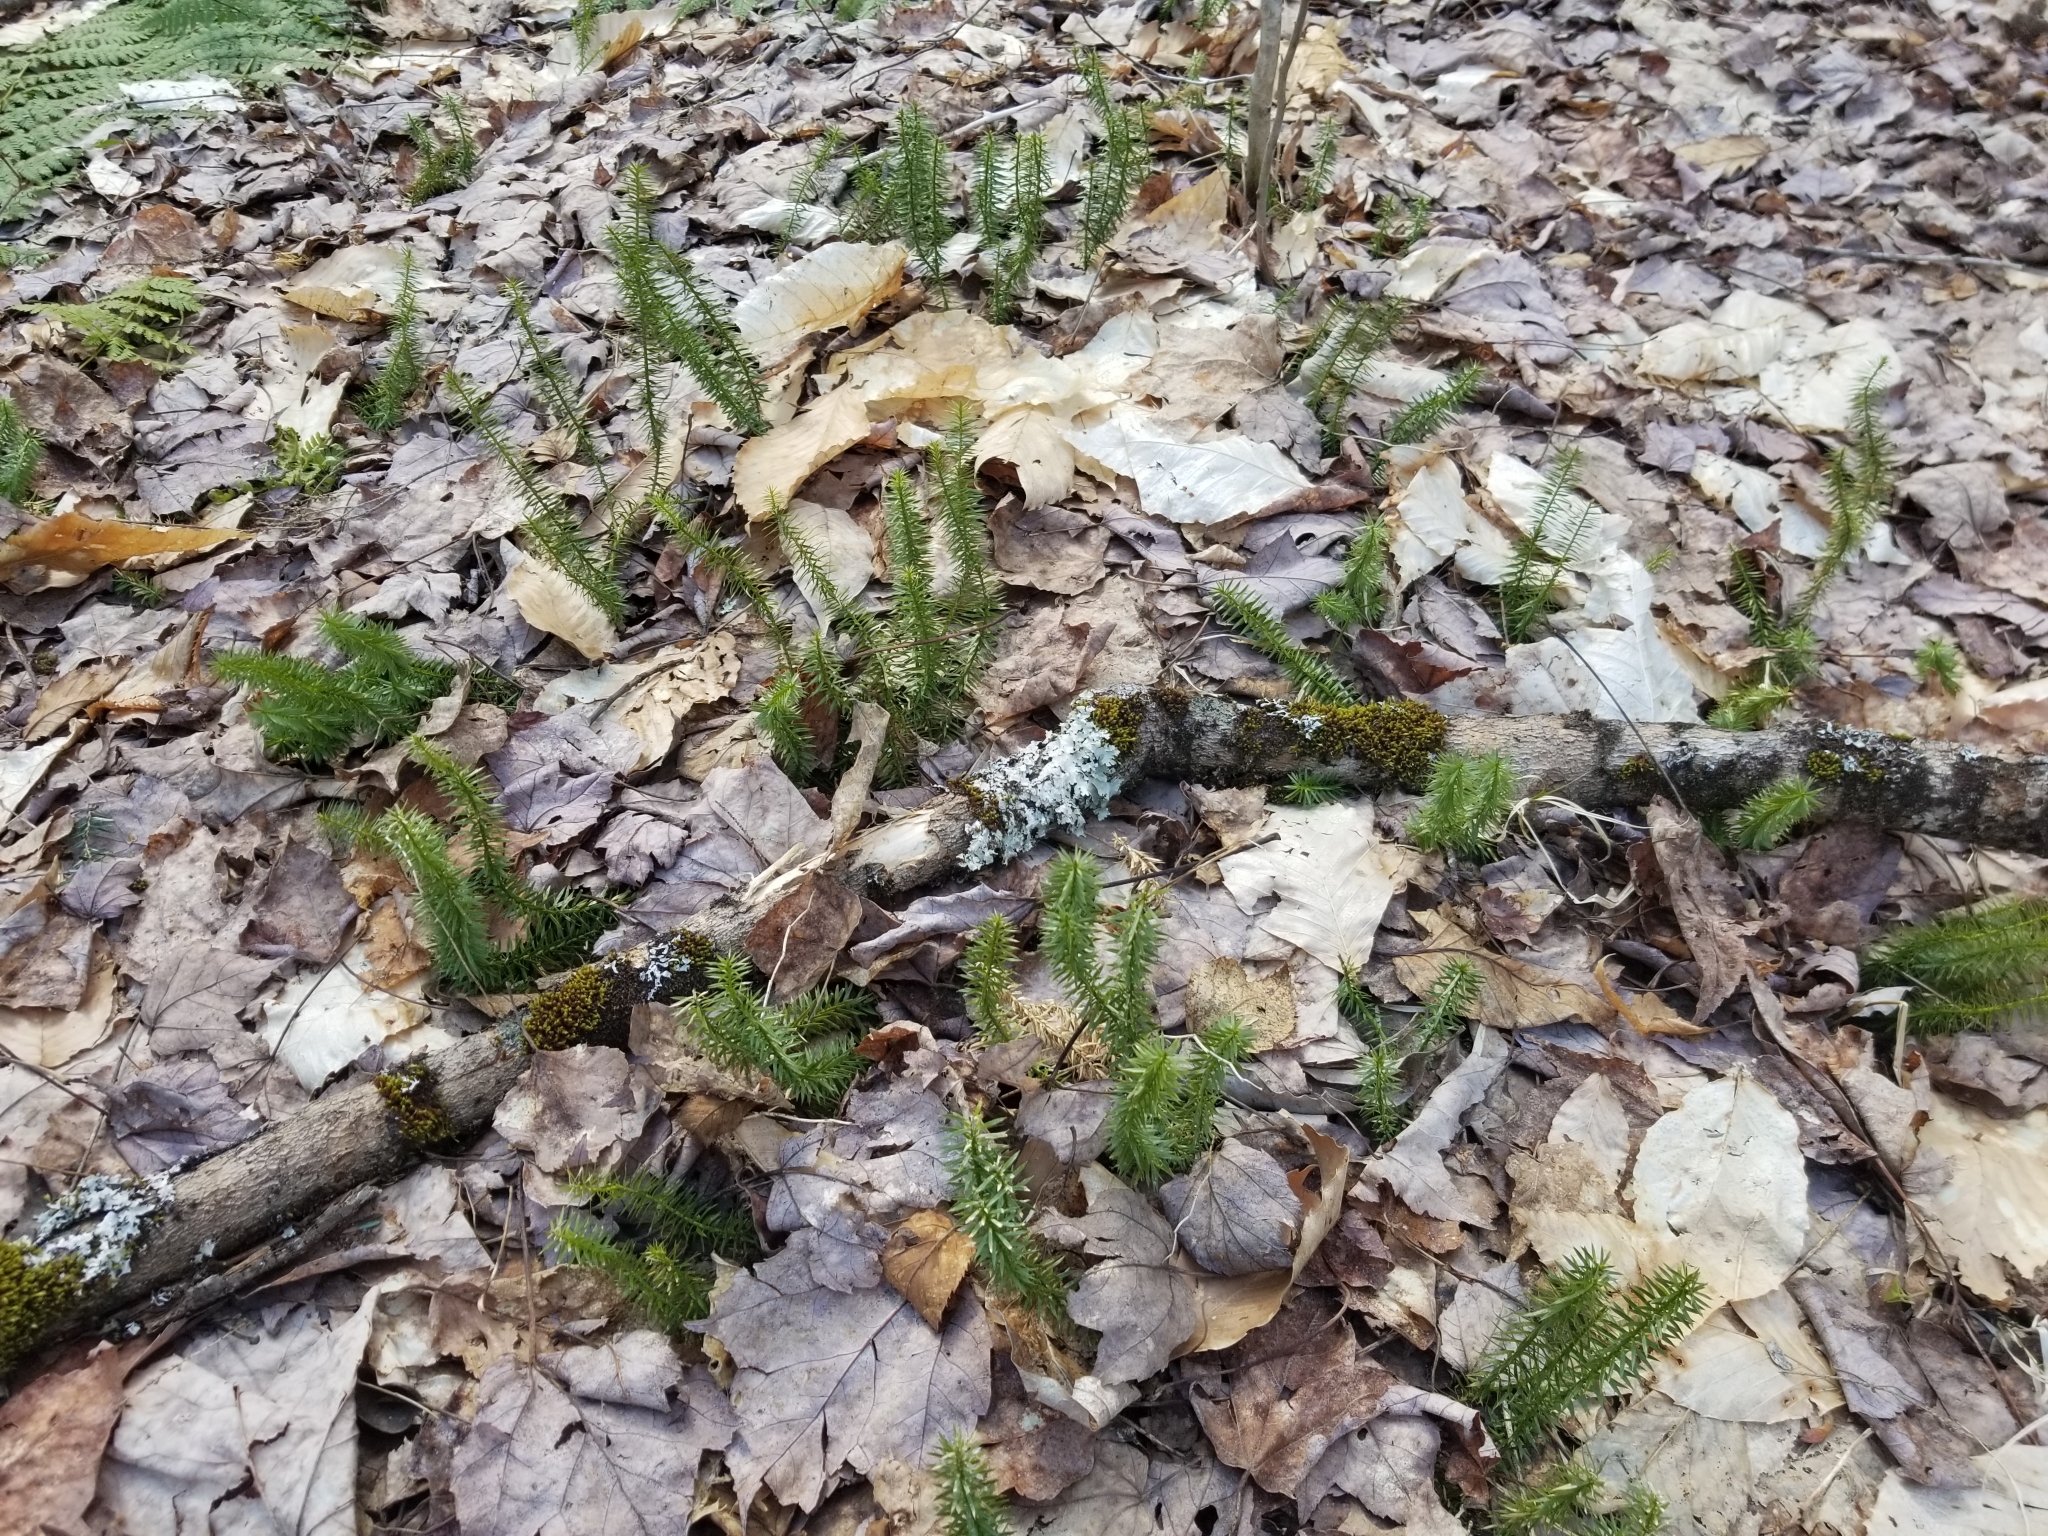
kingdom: Plantae
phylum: Tracheophyta
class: Lycopodiopsida
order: Lycopodiales
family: Lycopodiaceae
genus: Huperzia
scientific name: Huperzia lucidula
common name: Shining clubmoss
